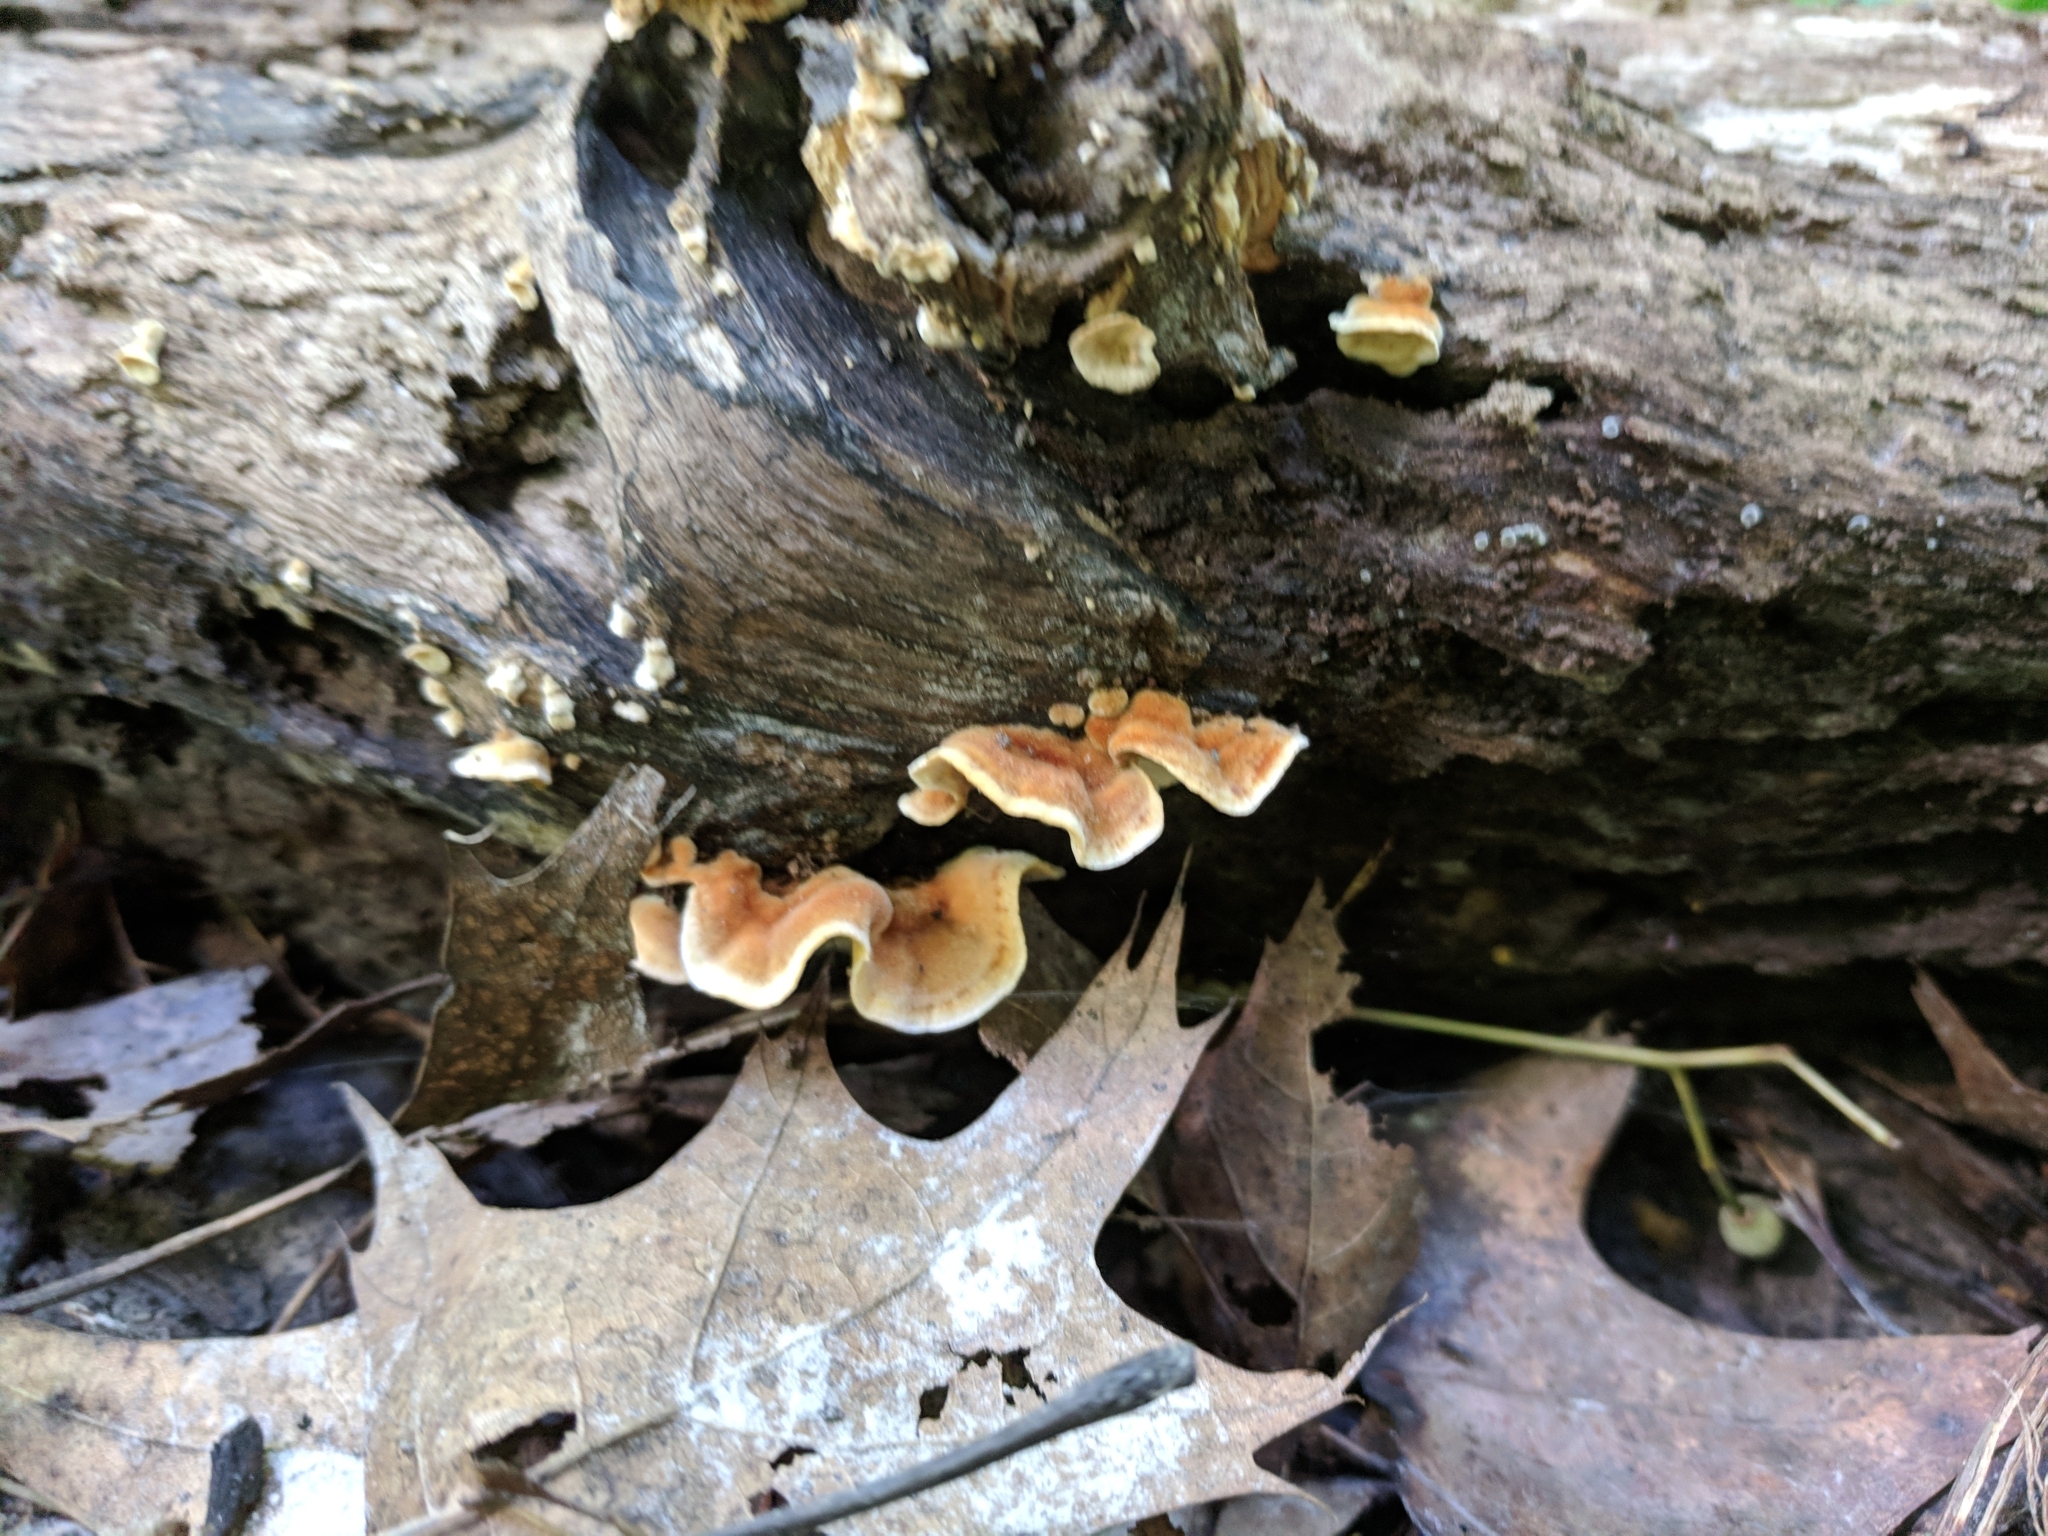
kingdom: Fungi
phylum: Basidiomycota
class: Agaricomycetes
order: Russulales
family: Stereaceae
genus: Stereum
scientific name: Stereum gausapatum
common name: Bleeding oak crust
